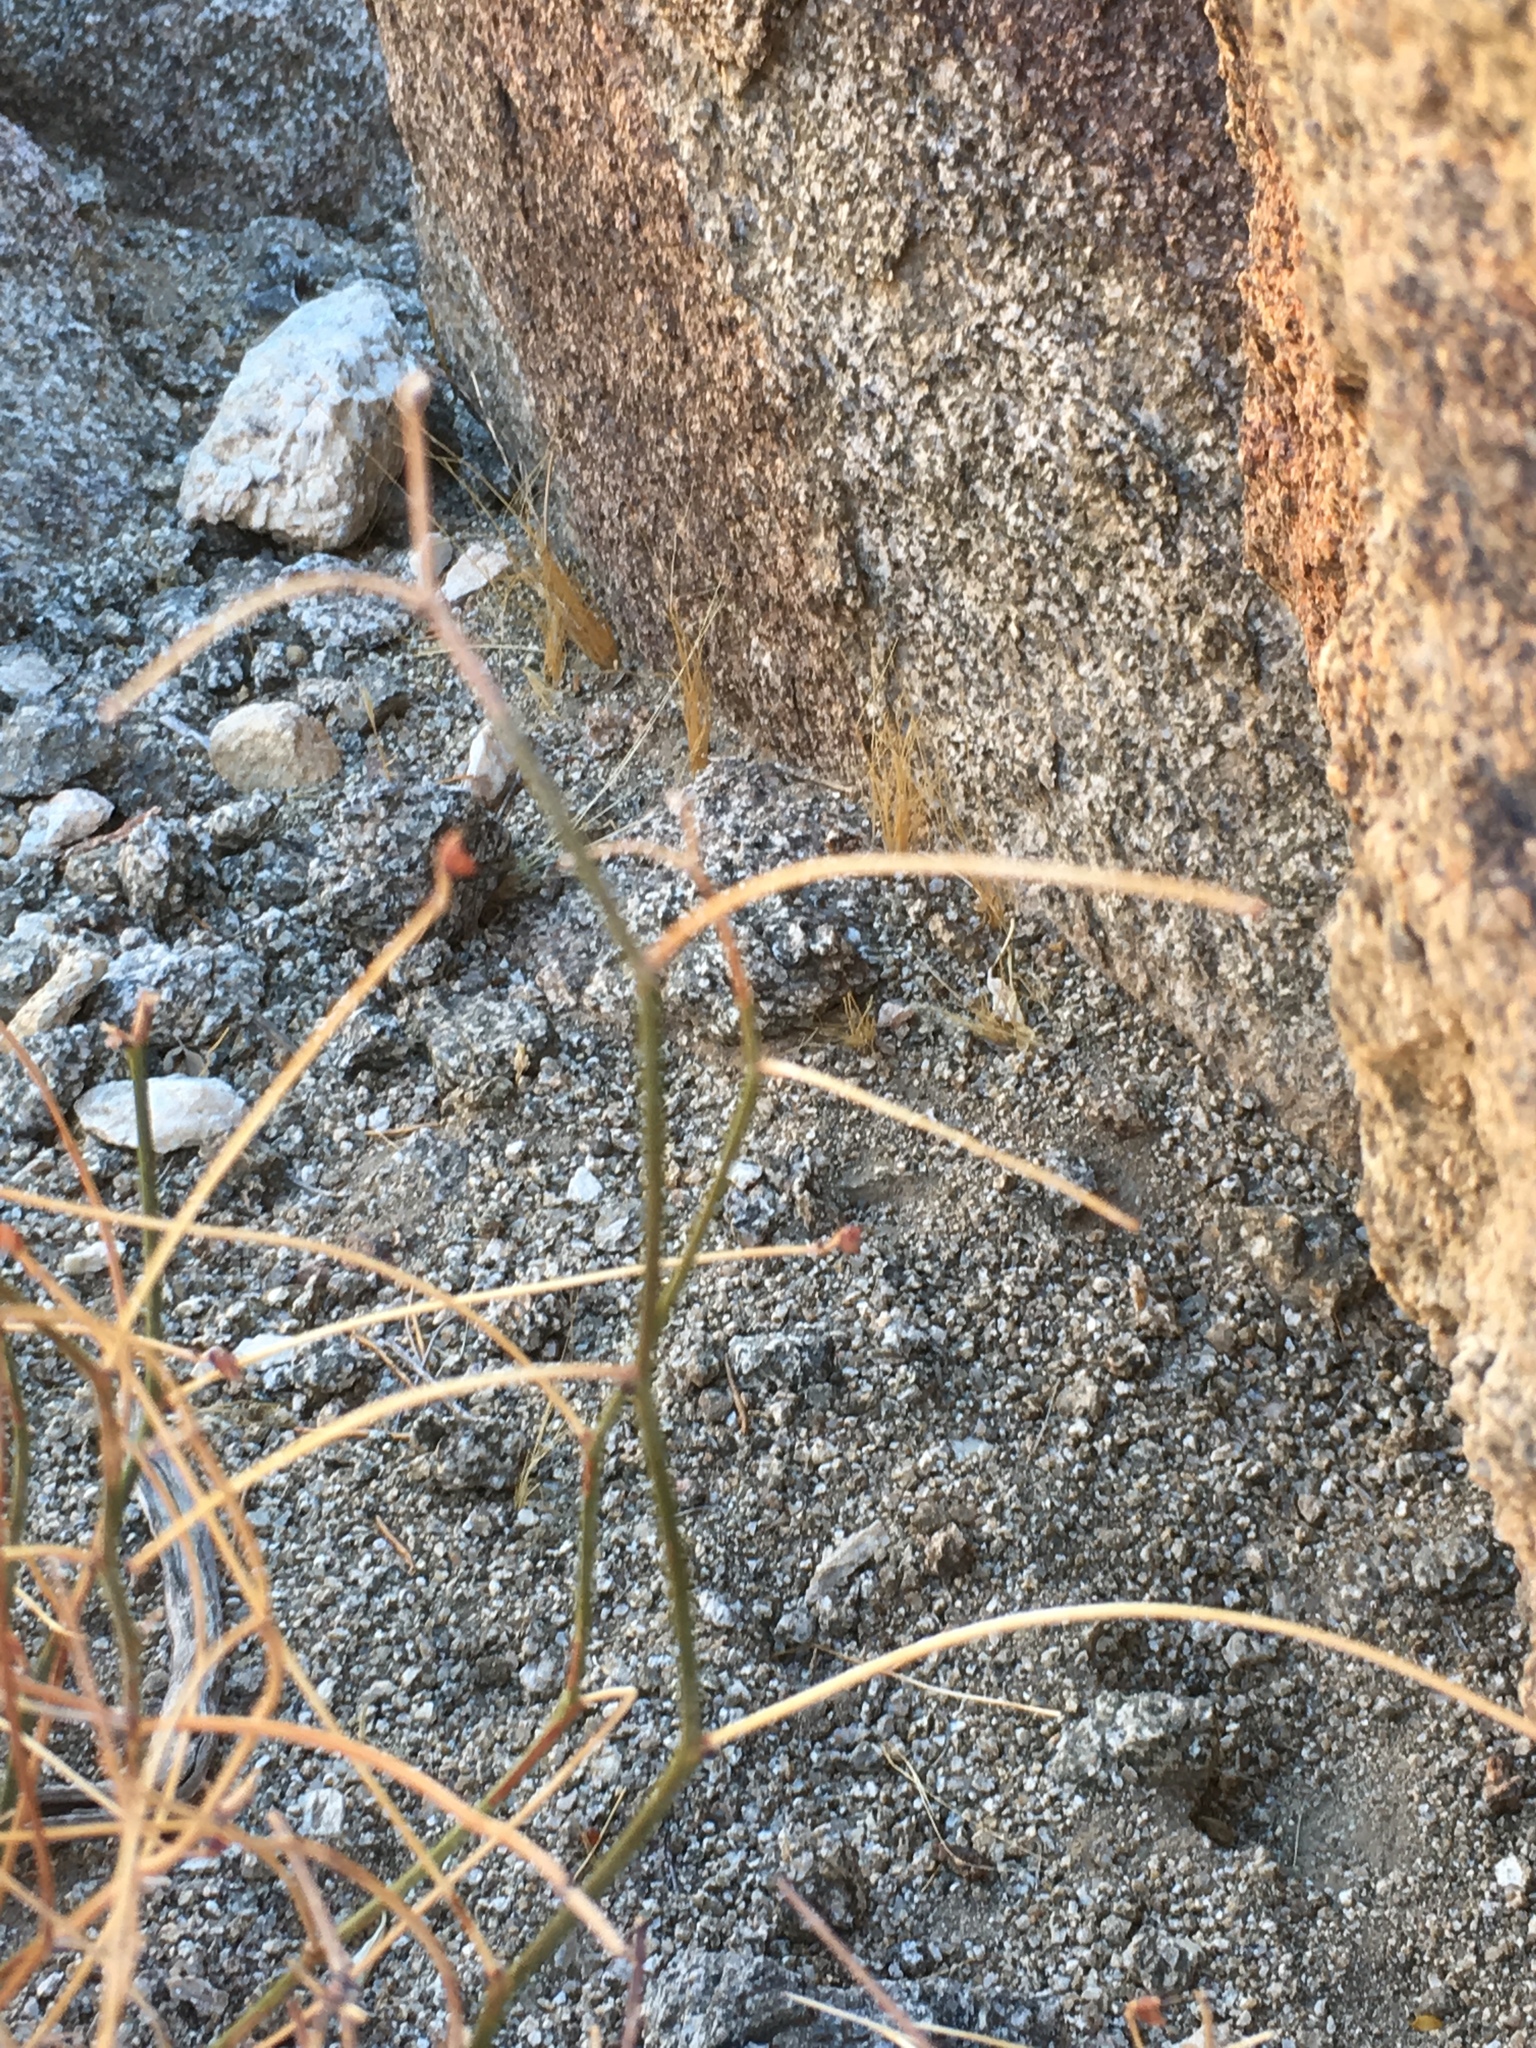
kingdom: Plantae
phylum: Tracheophyta
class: Magnoliopsida
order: Fabales
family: Fabaceae
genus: Acmispon
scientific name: Acmispon rigidus
